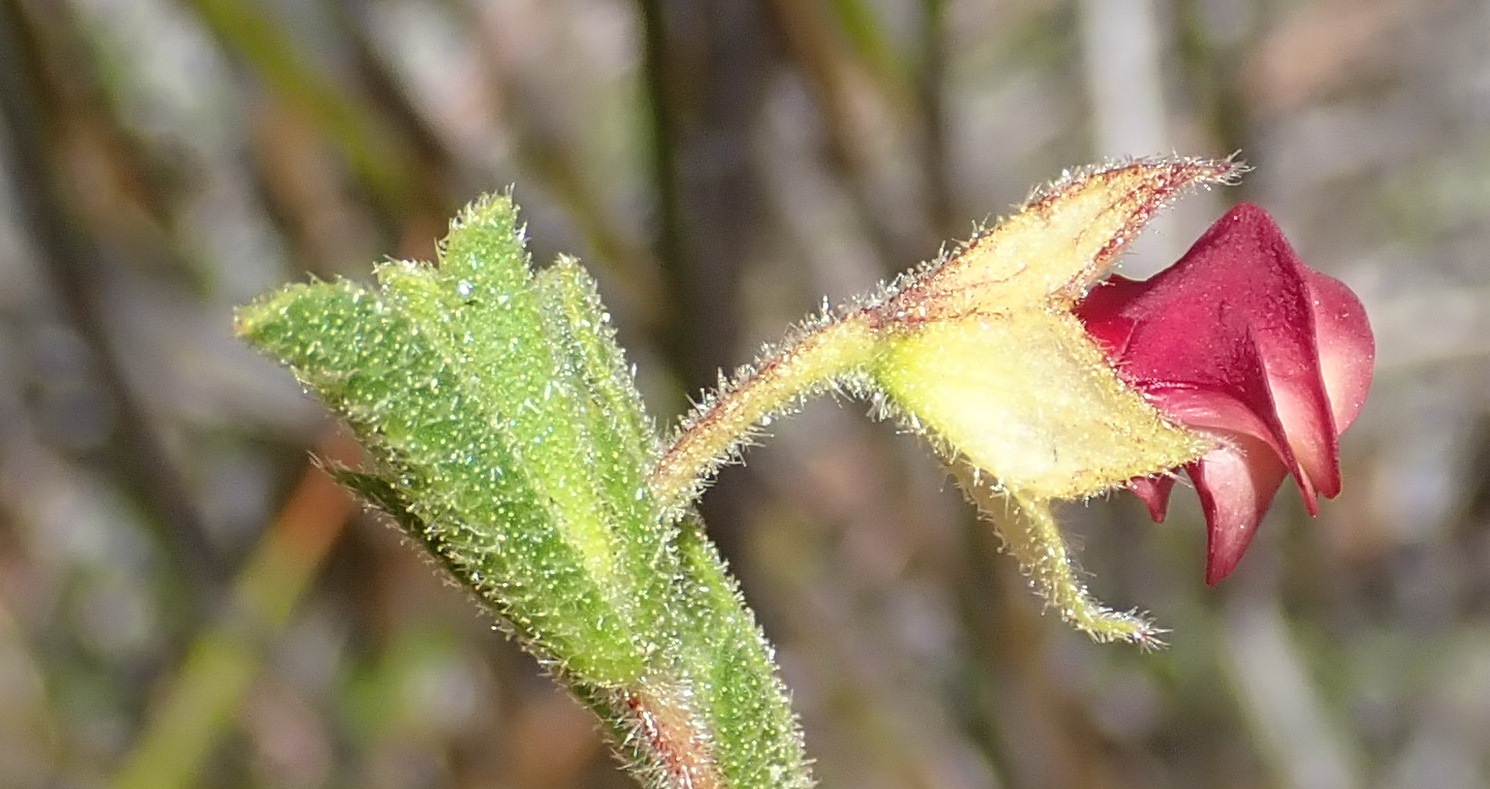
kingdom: Plantae
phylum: Tracheophyta
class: Magnoliopsida
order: Malvales
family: Malvaceae
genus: Hermannia
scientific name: Hermannia flammula
